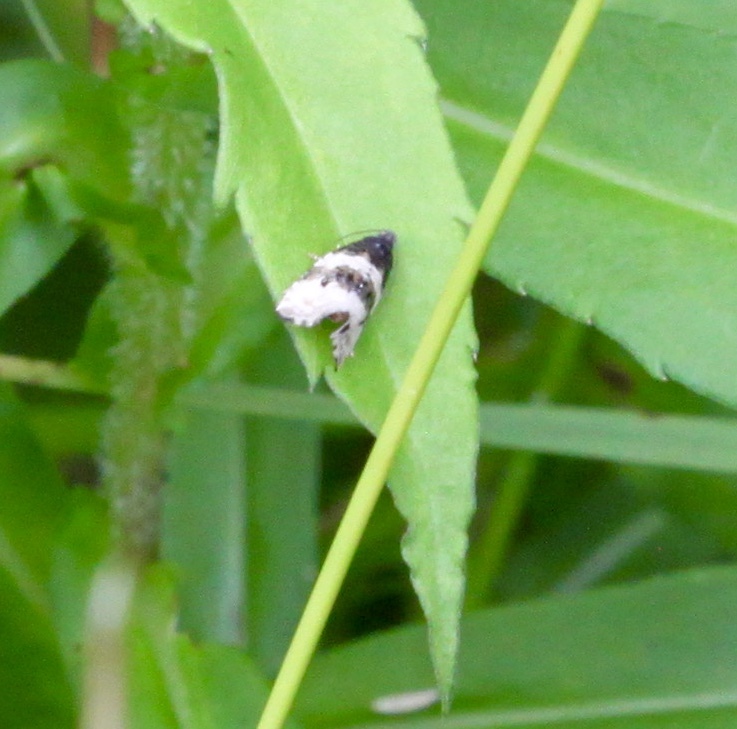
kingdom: Animalia
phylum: Arthropoda
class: Insecta
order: Lepidoptera
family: Tortricidae
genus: Olethreutes
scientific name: Olethreutes bipartitana
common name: Divided olethreutes moth
